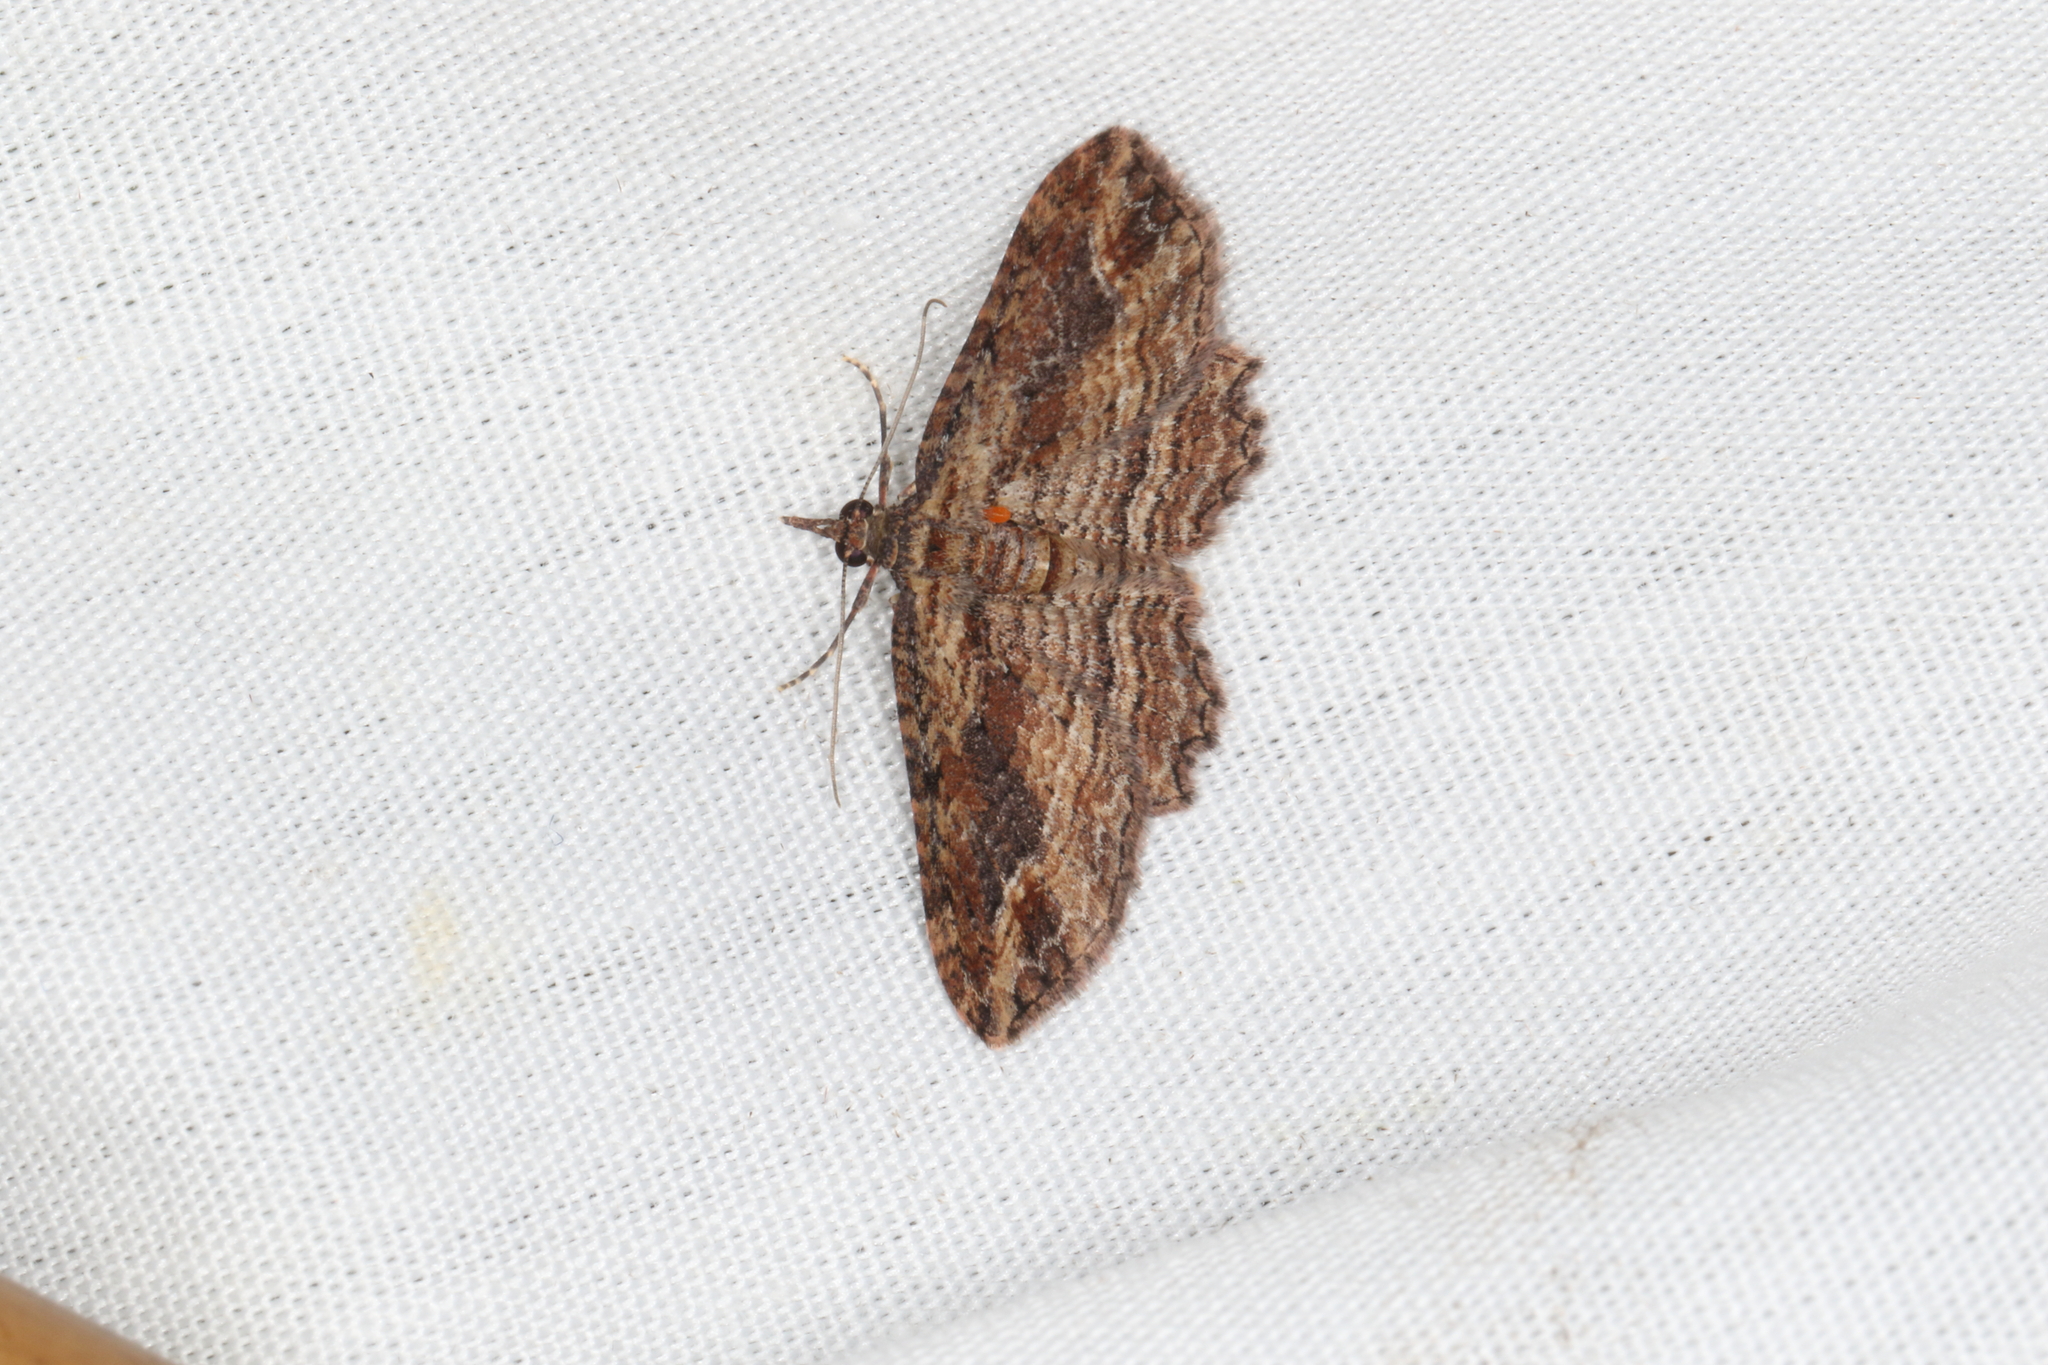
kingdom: Animalia
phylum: Arthropoda
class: Insecta
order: Lepidoptera
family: Geometridae
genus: Chloroclystis
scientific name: Chloroclystis filata
